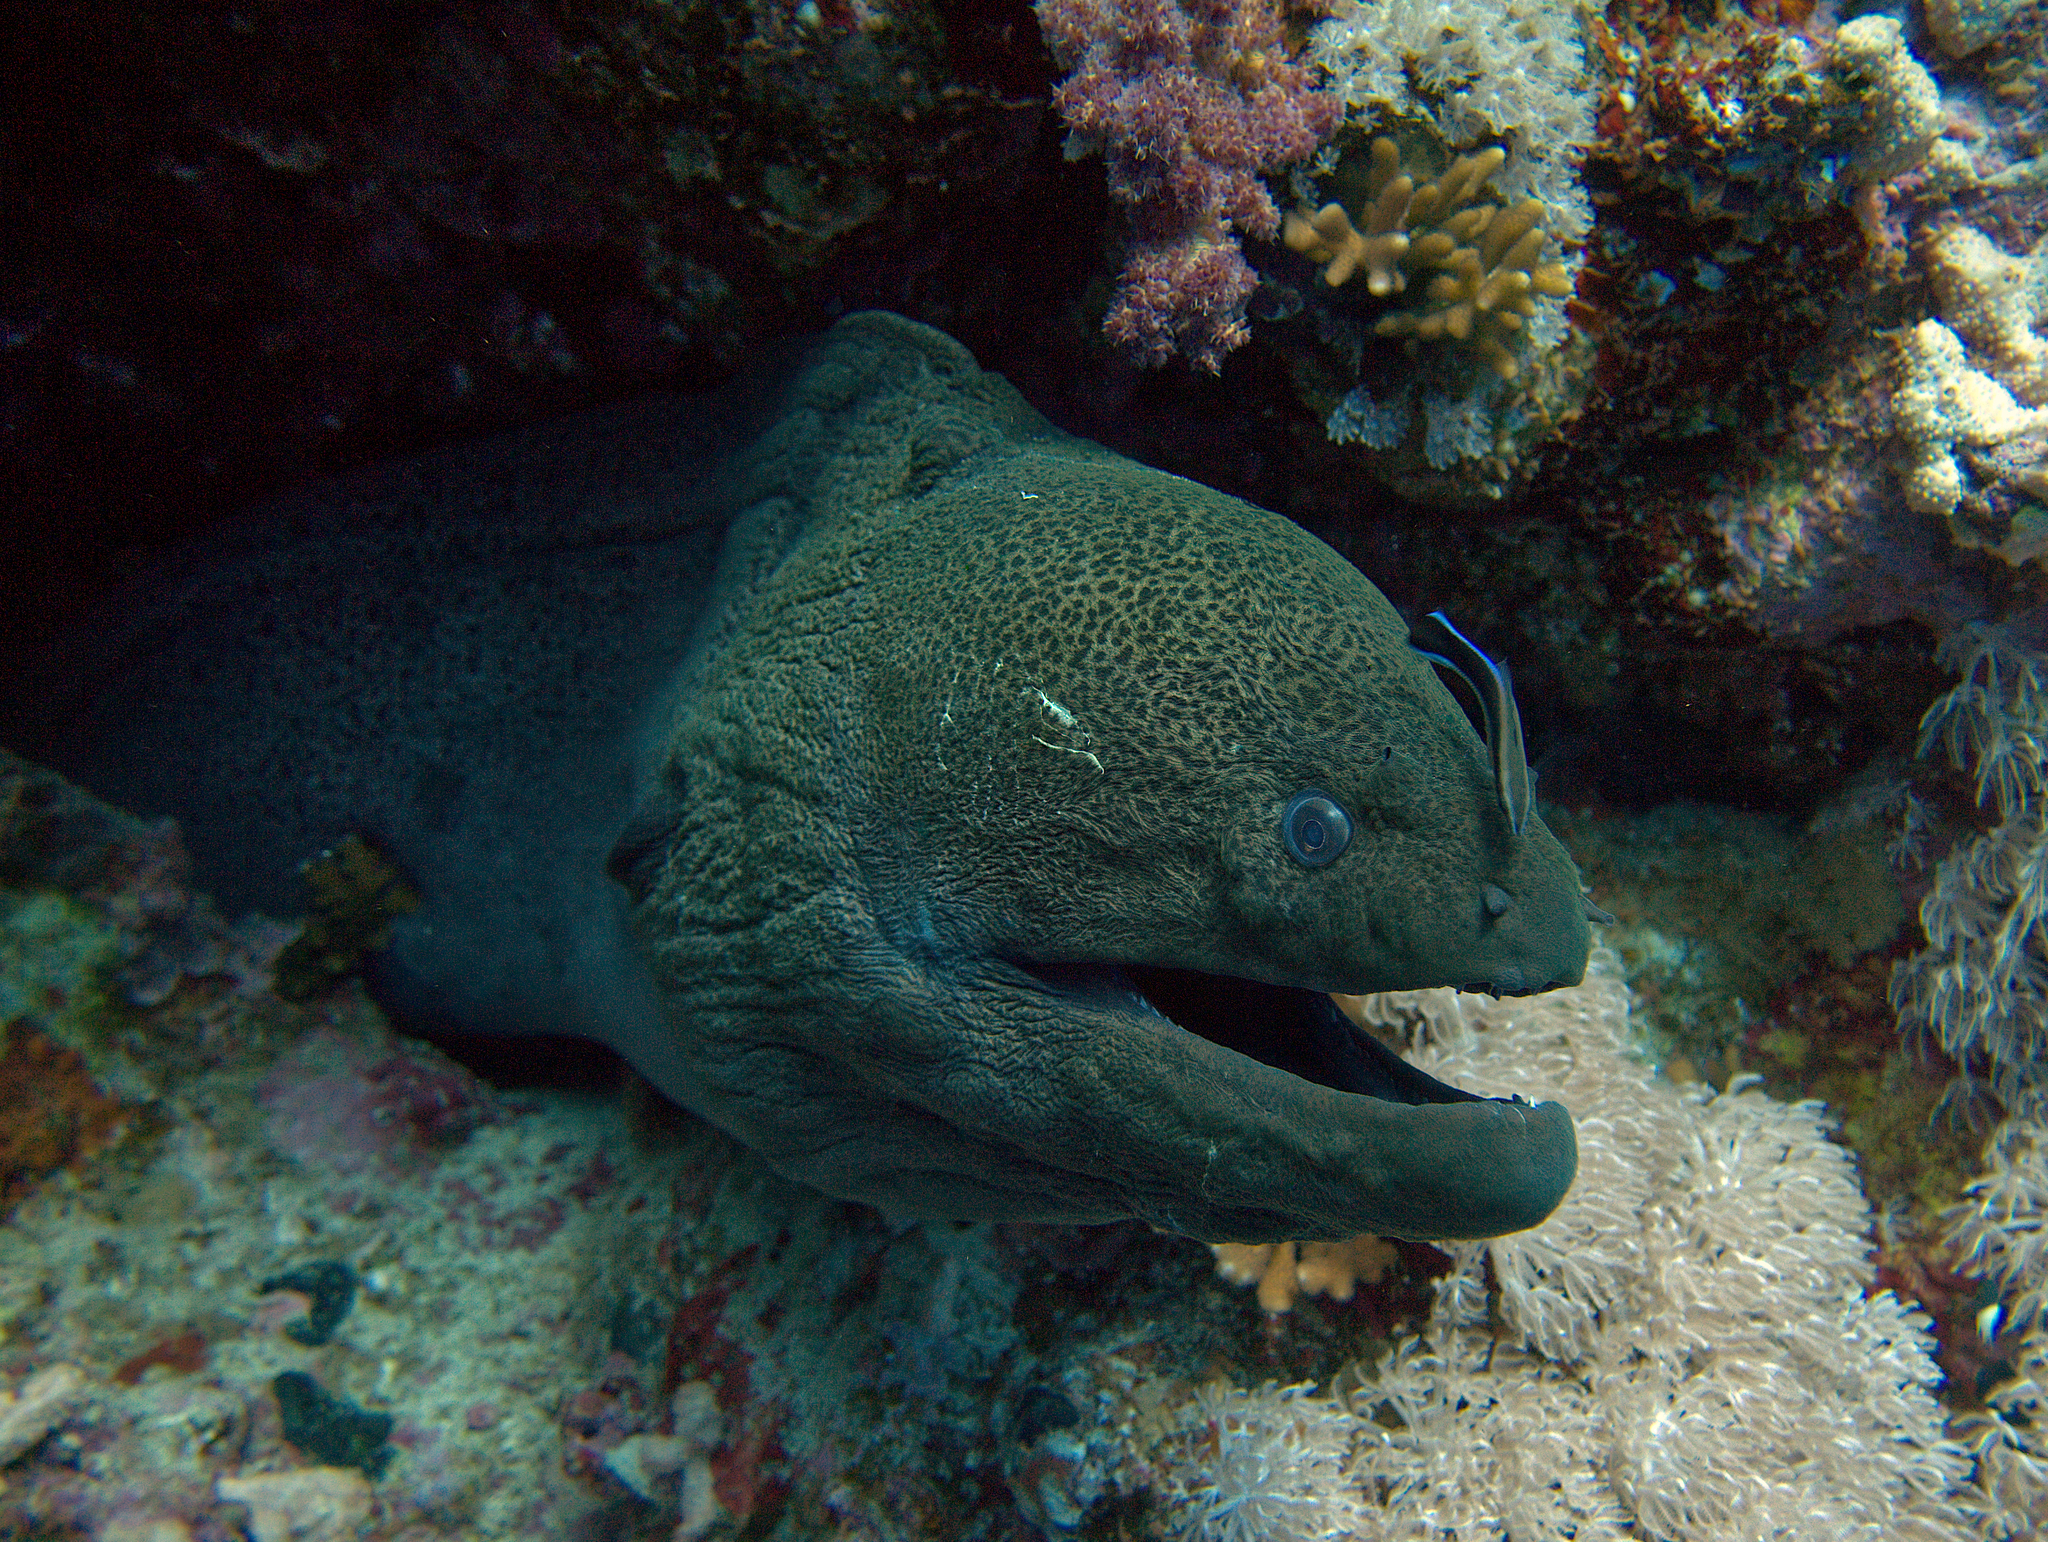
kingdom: Animalia
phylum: Chordata
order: Anguilliformes
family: Muraenidae
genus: Gymnothorax
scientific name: Gymnothorax javanicus
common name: Giant moray
